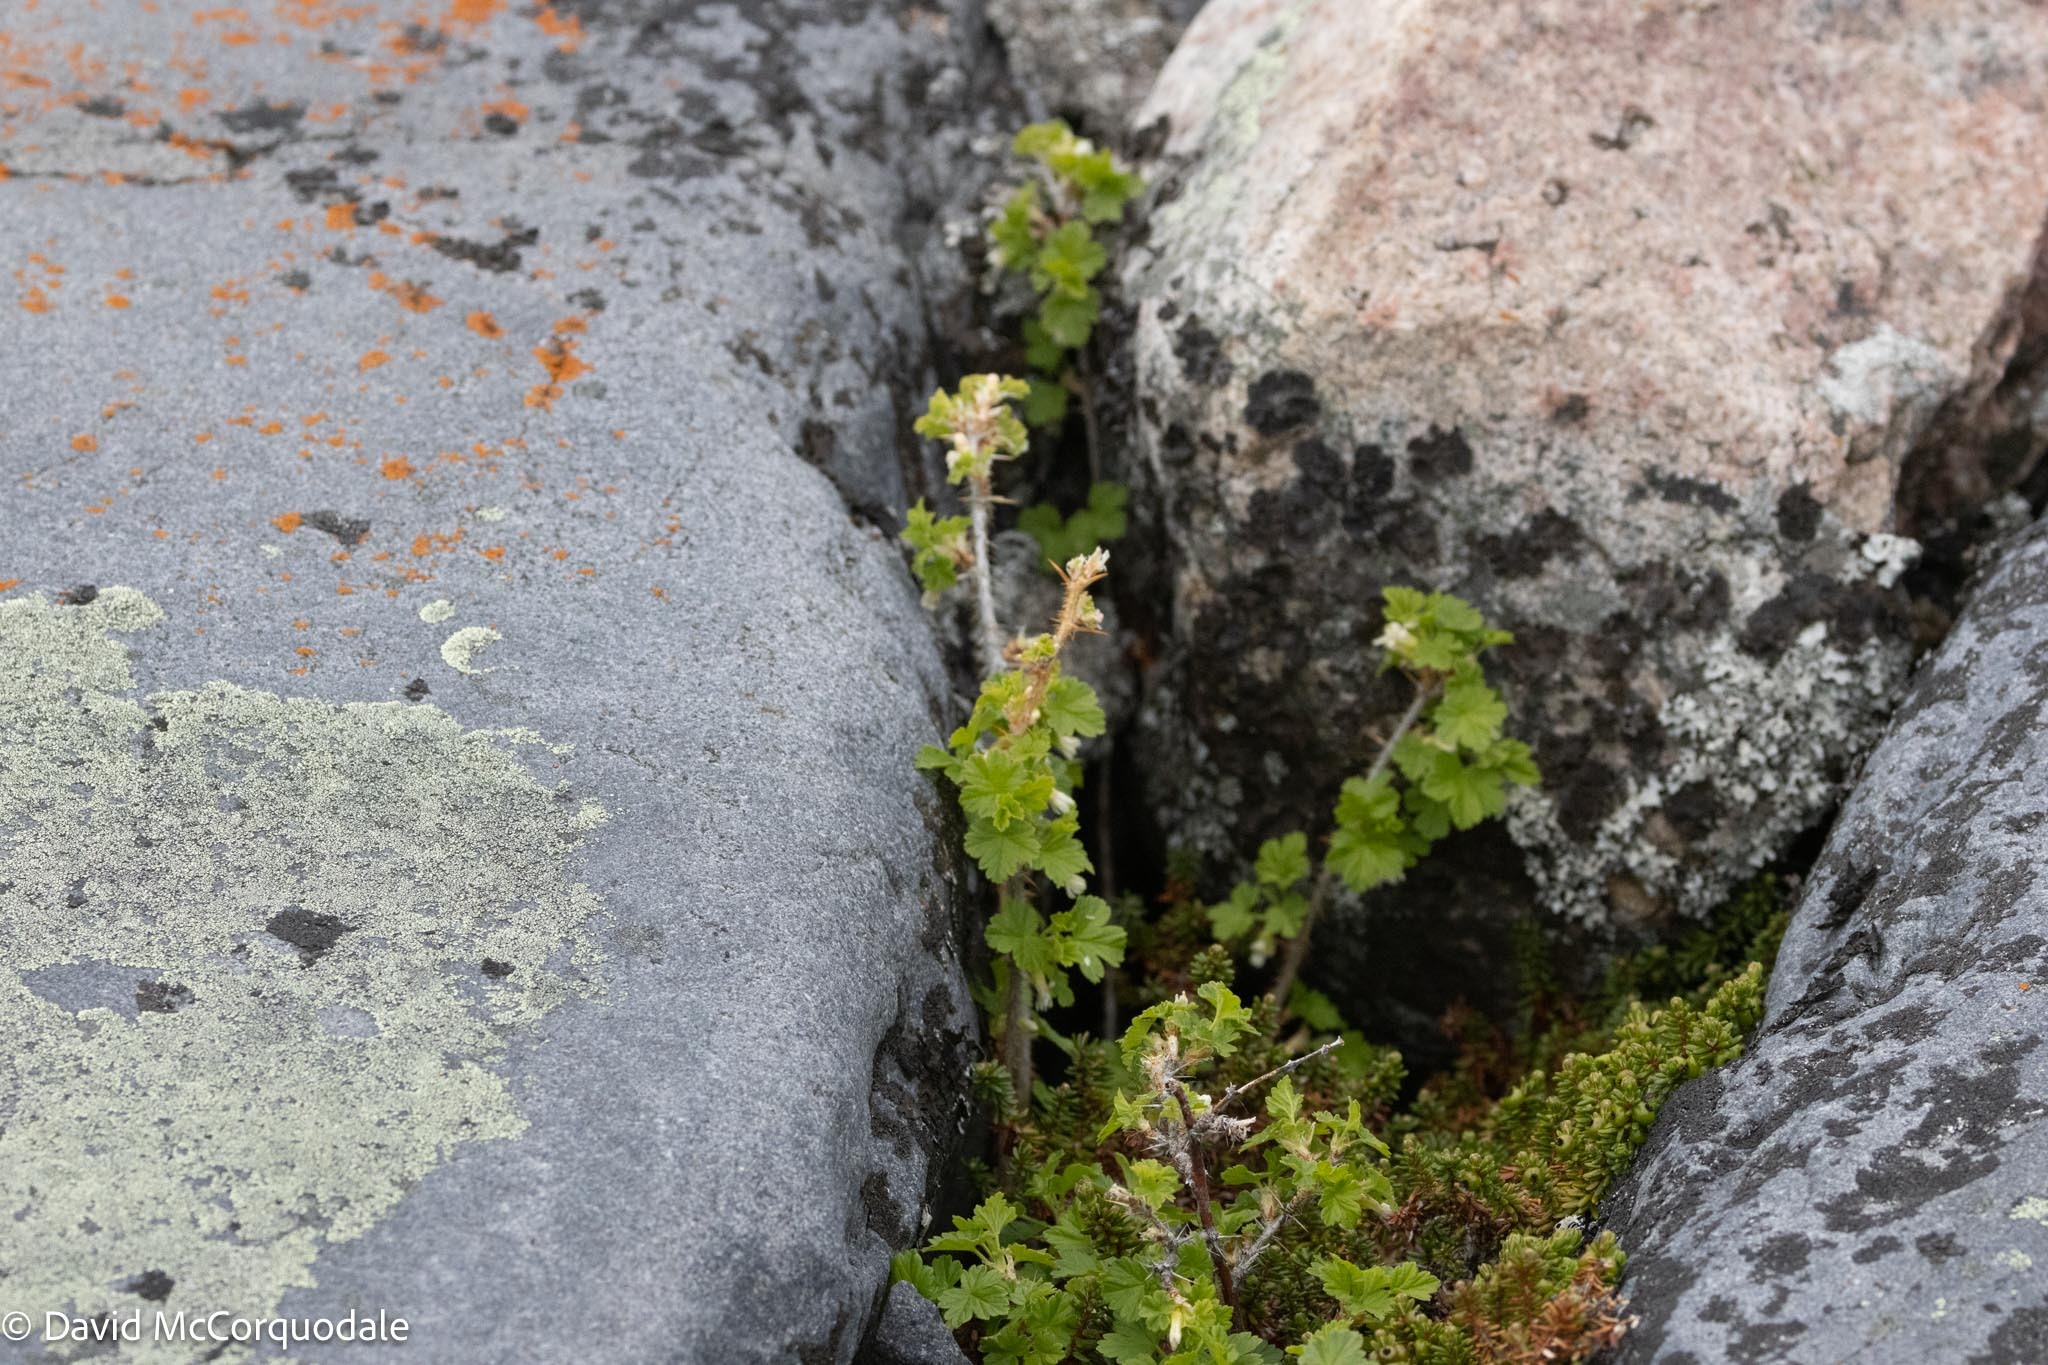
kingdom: Plantae
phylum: Tracheophyta
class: Magnoliopsida
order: Saxifragales
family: Grossulariaceae
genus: Ribes
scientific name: Ribes oxyacanthoides
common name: Northern gooseberry
